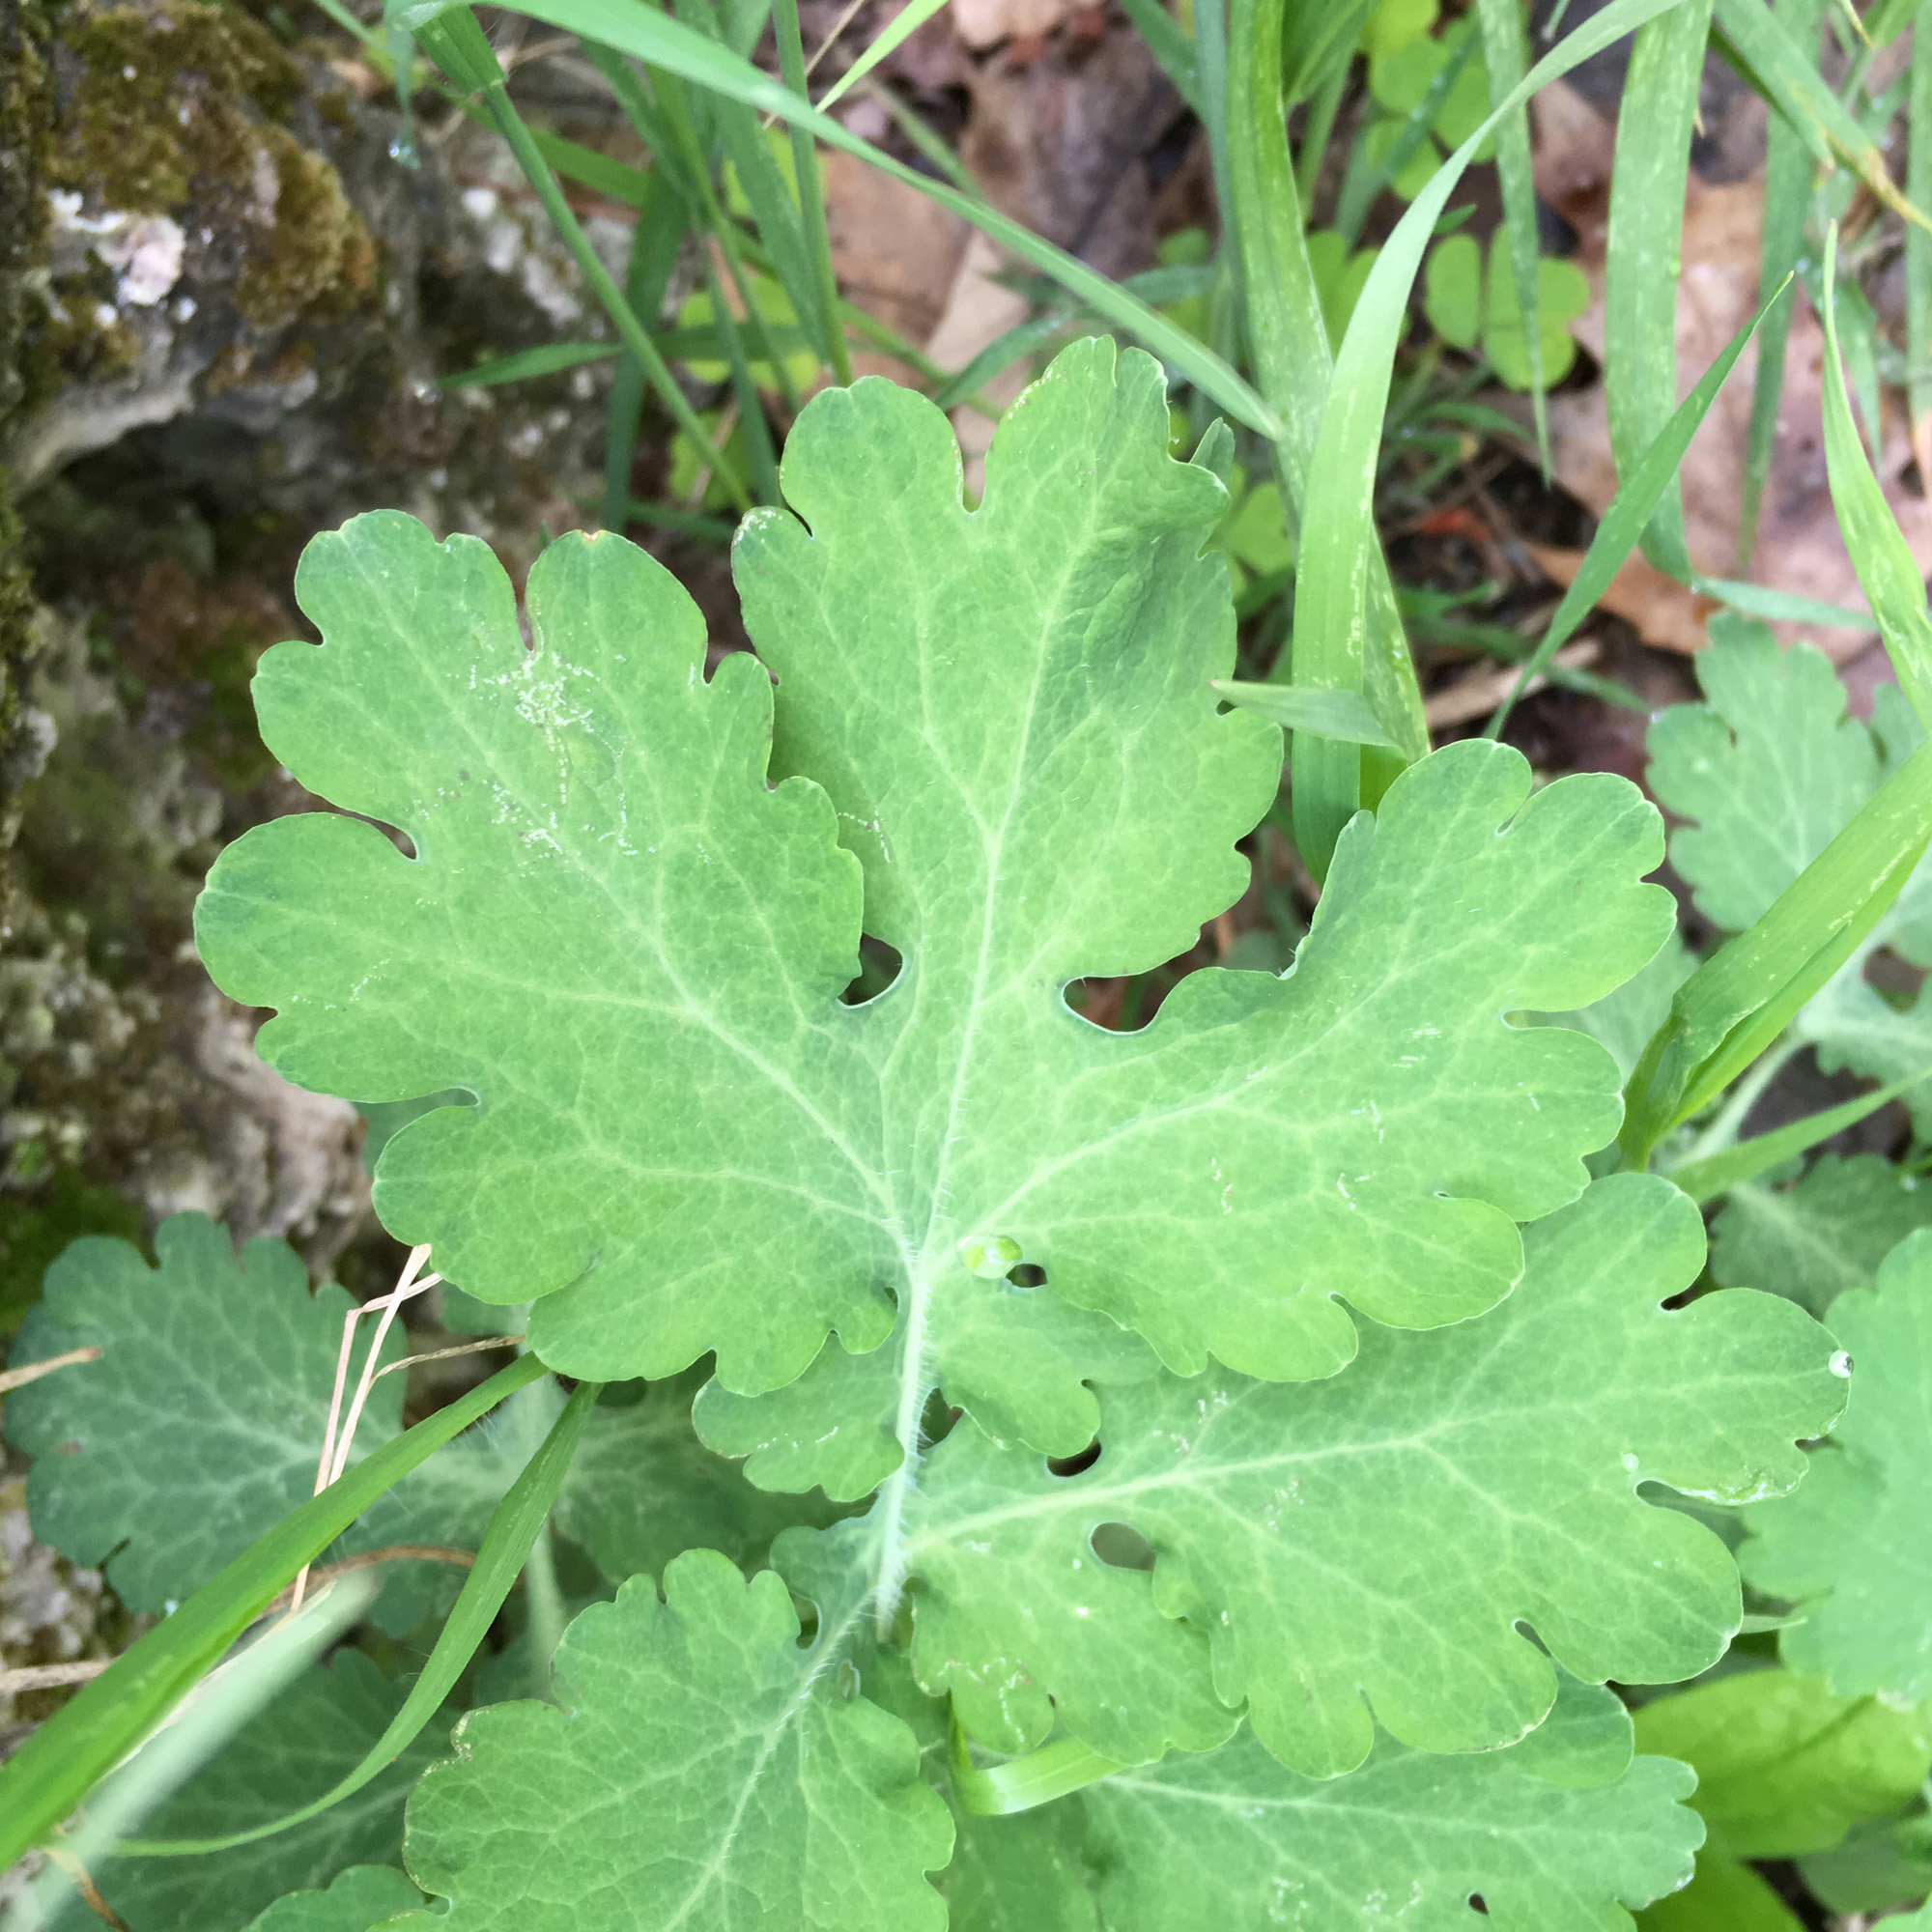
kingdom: Plantae
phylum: Tracheophyta
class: Magnoliopsida
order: Ranunculales
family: Papaveraceae
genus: Chelidonium
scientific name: Chelidonium majus
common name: Greater celandine
